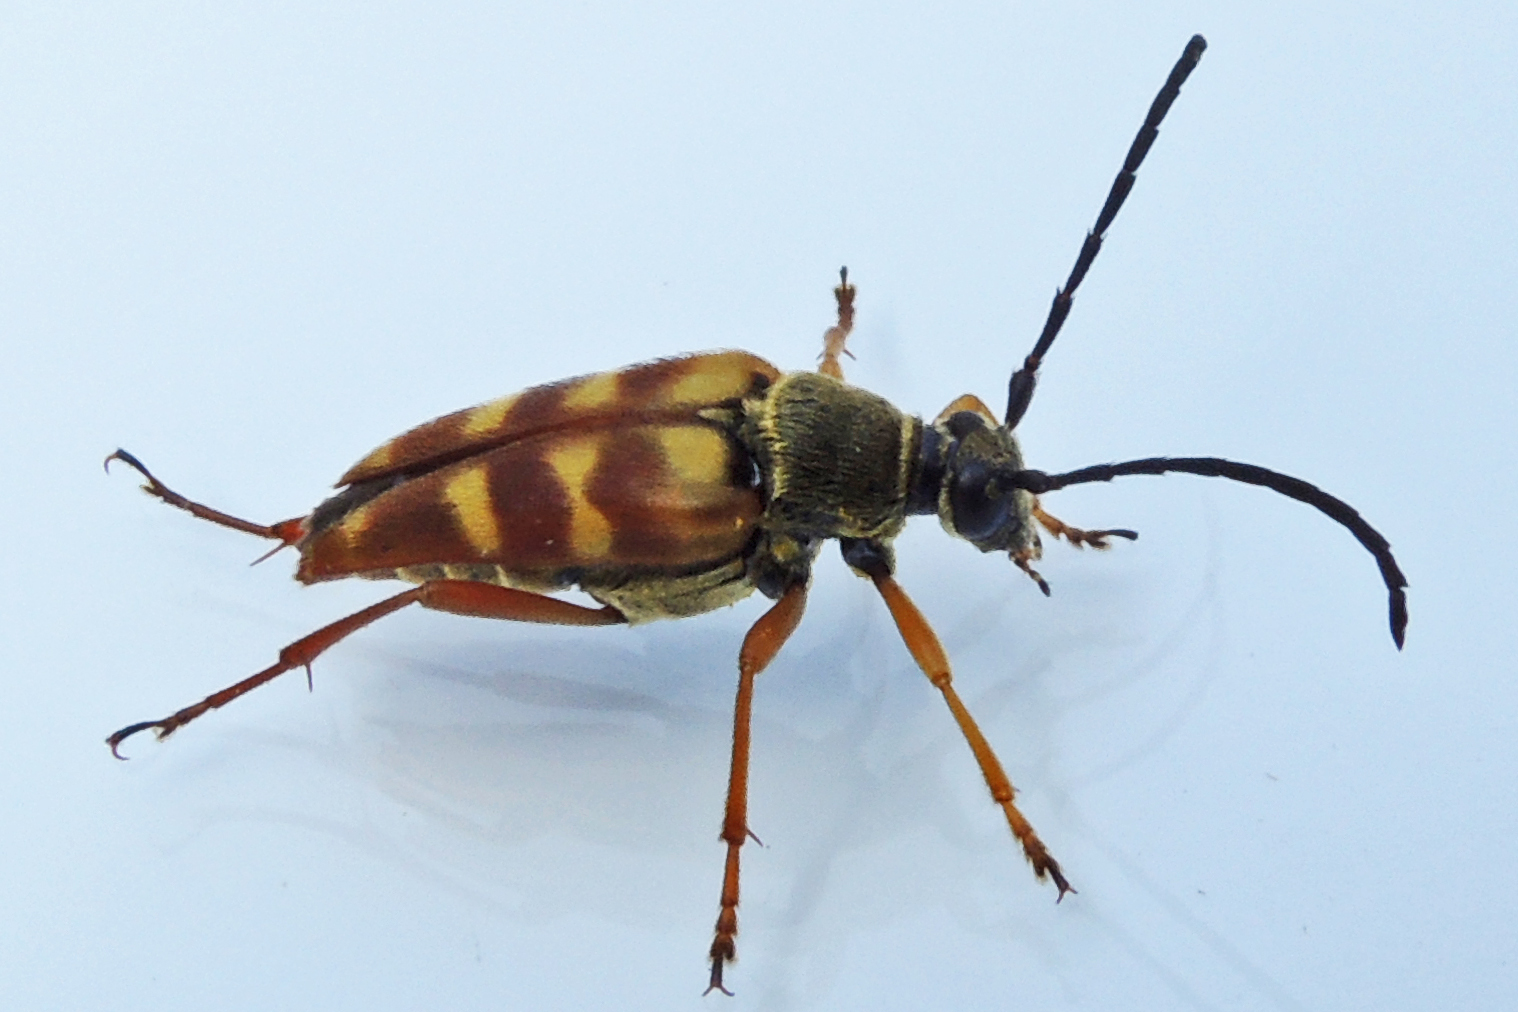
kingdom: Animalia
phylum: Arthropoda
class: Insecta
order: Coleoptera
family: Cerambycidae
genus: Typocerus
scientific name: Typocerus velutinus
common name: Banded longhorn beetle
